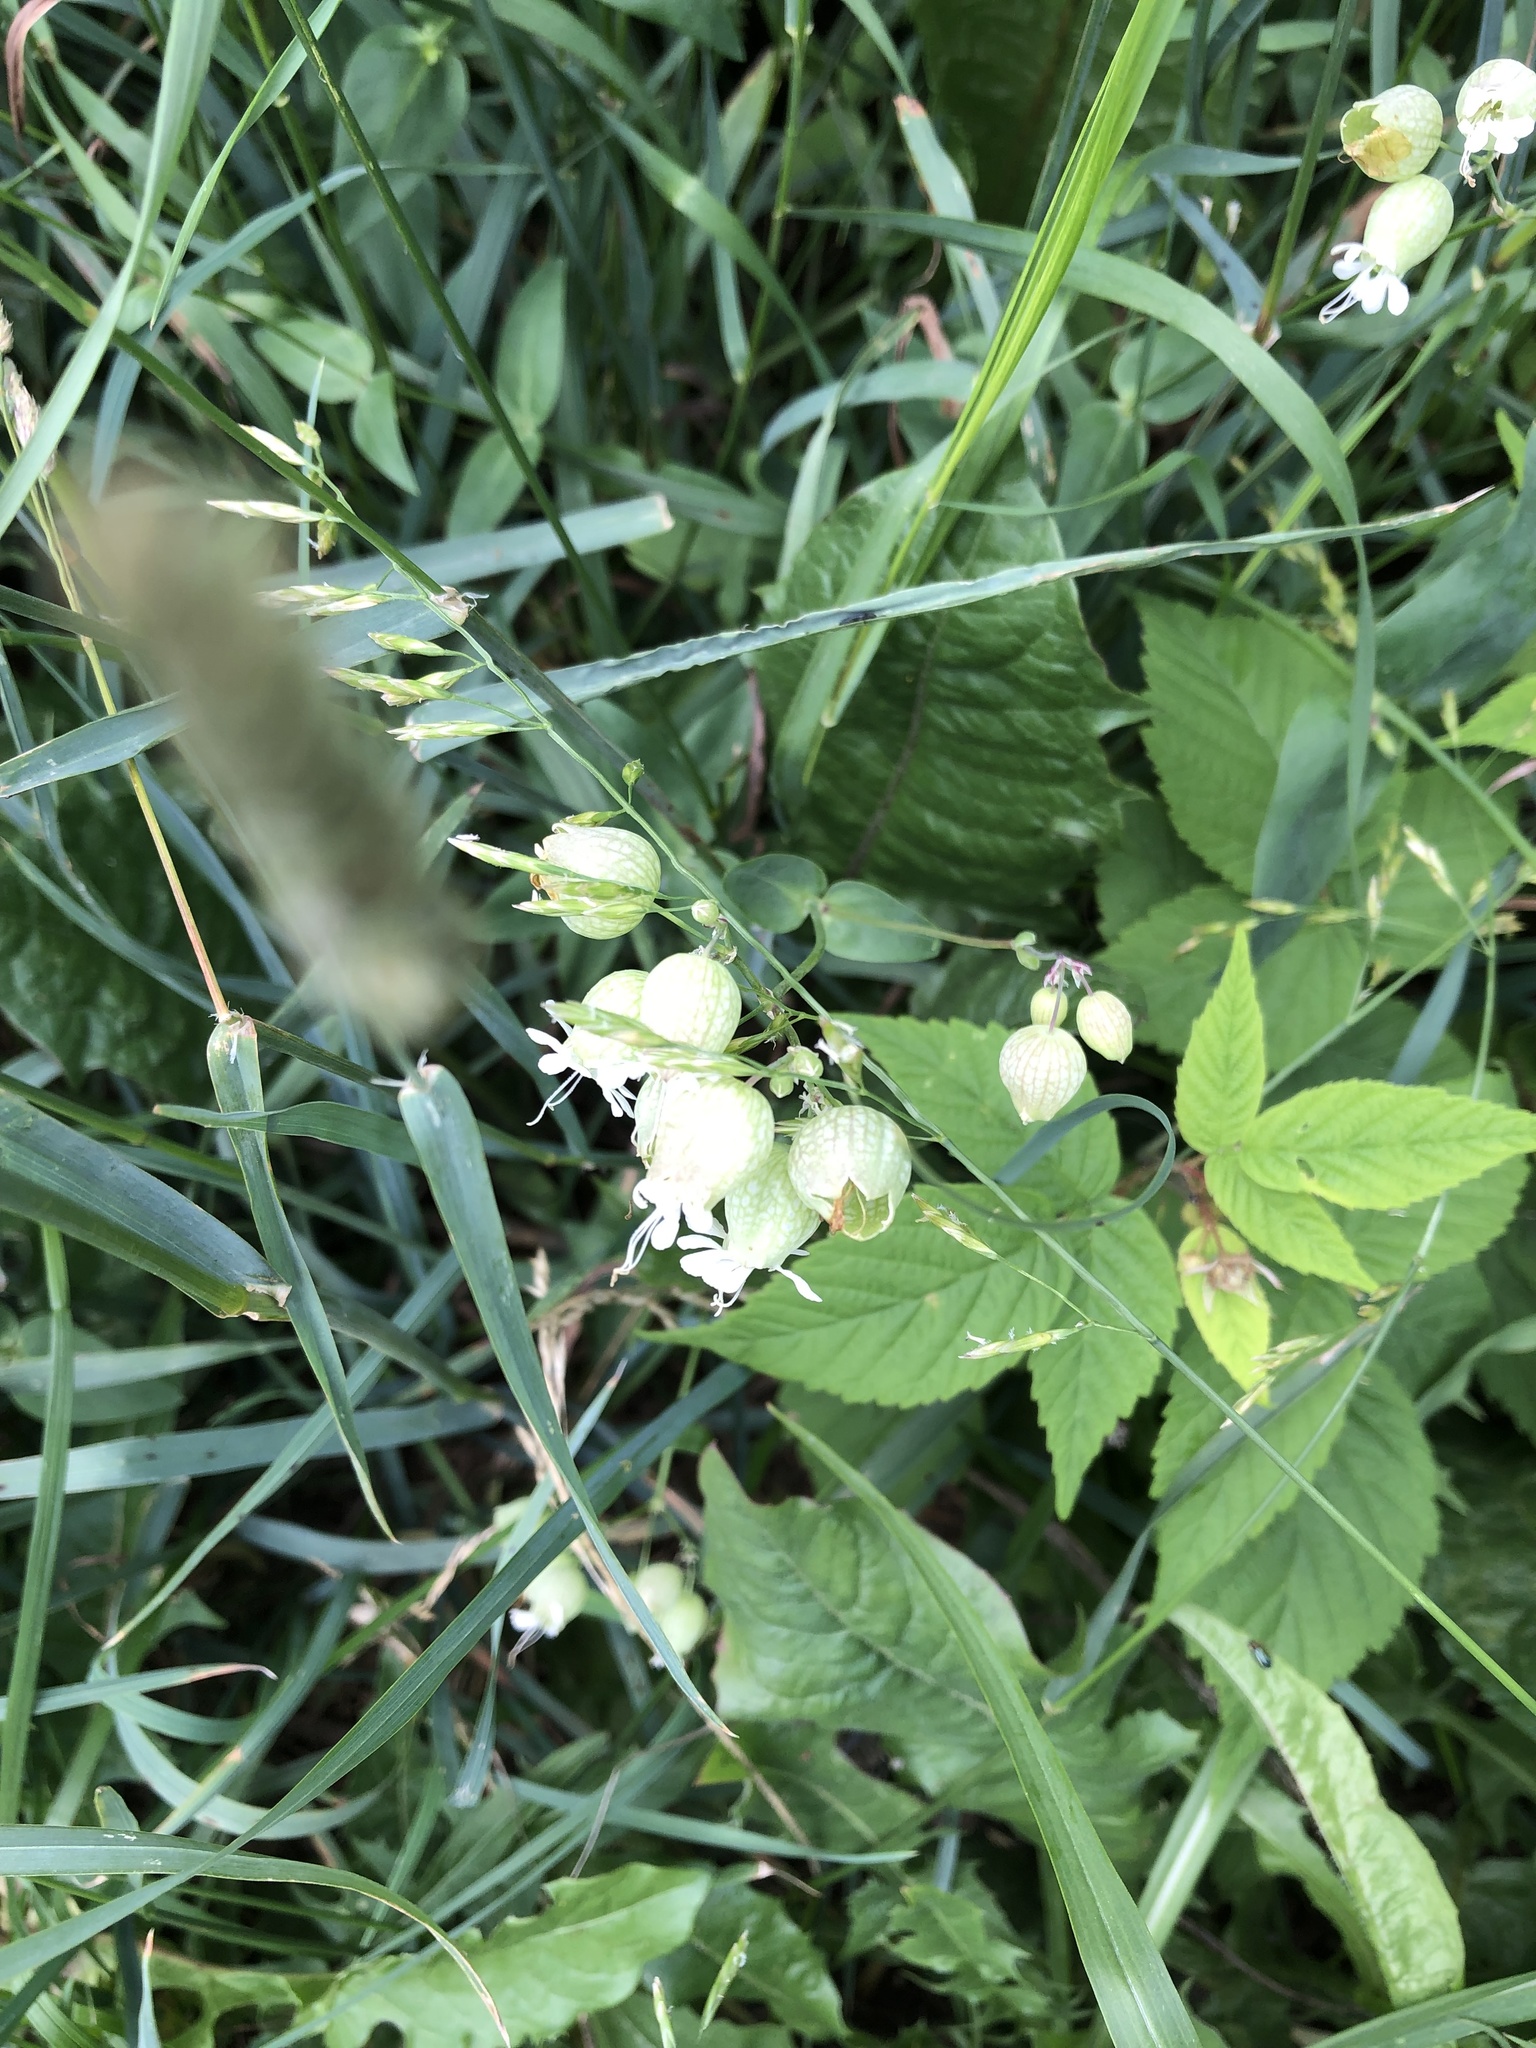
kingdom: Plantae
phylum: Tracheophyta
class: Magnoliopsida
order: Caryophyllales
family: Caryophyllaceae
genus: Silene
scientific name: Silene vulgaris
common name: Bladder campion
